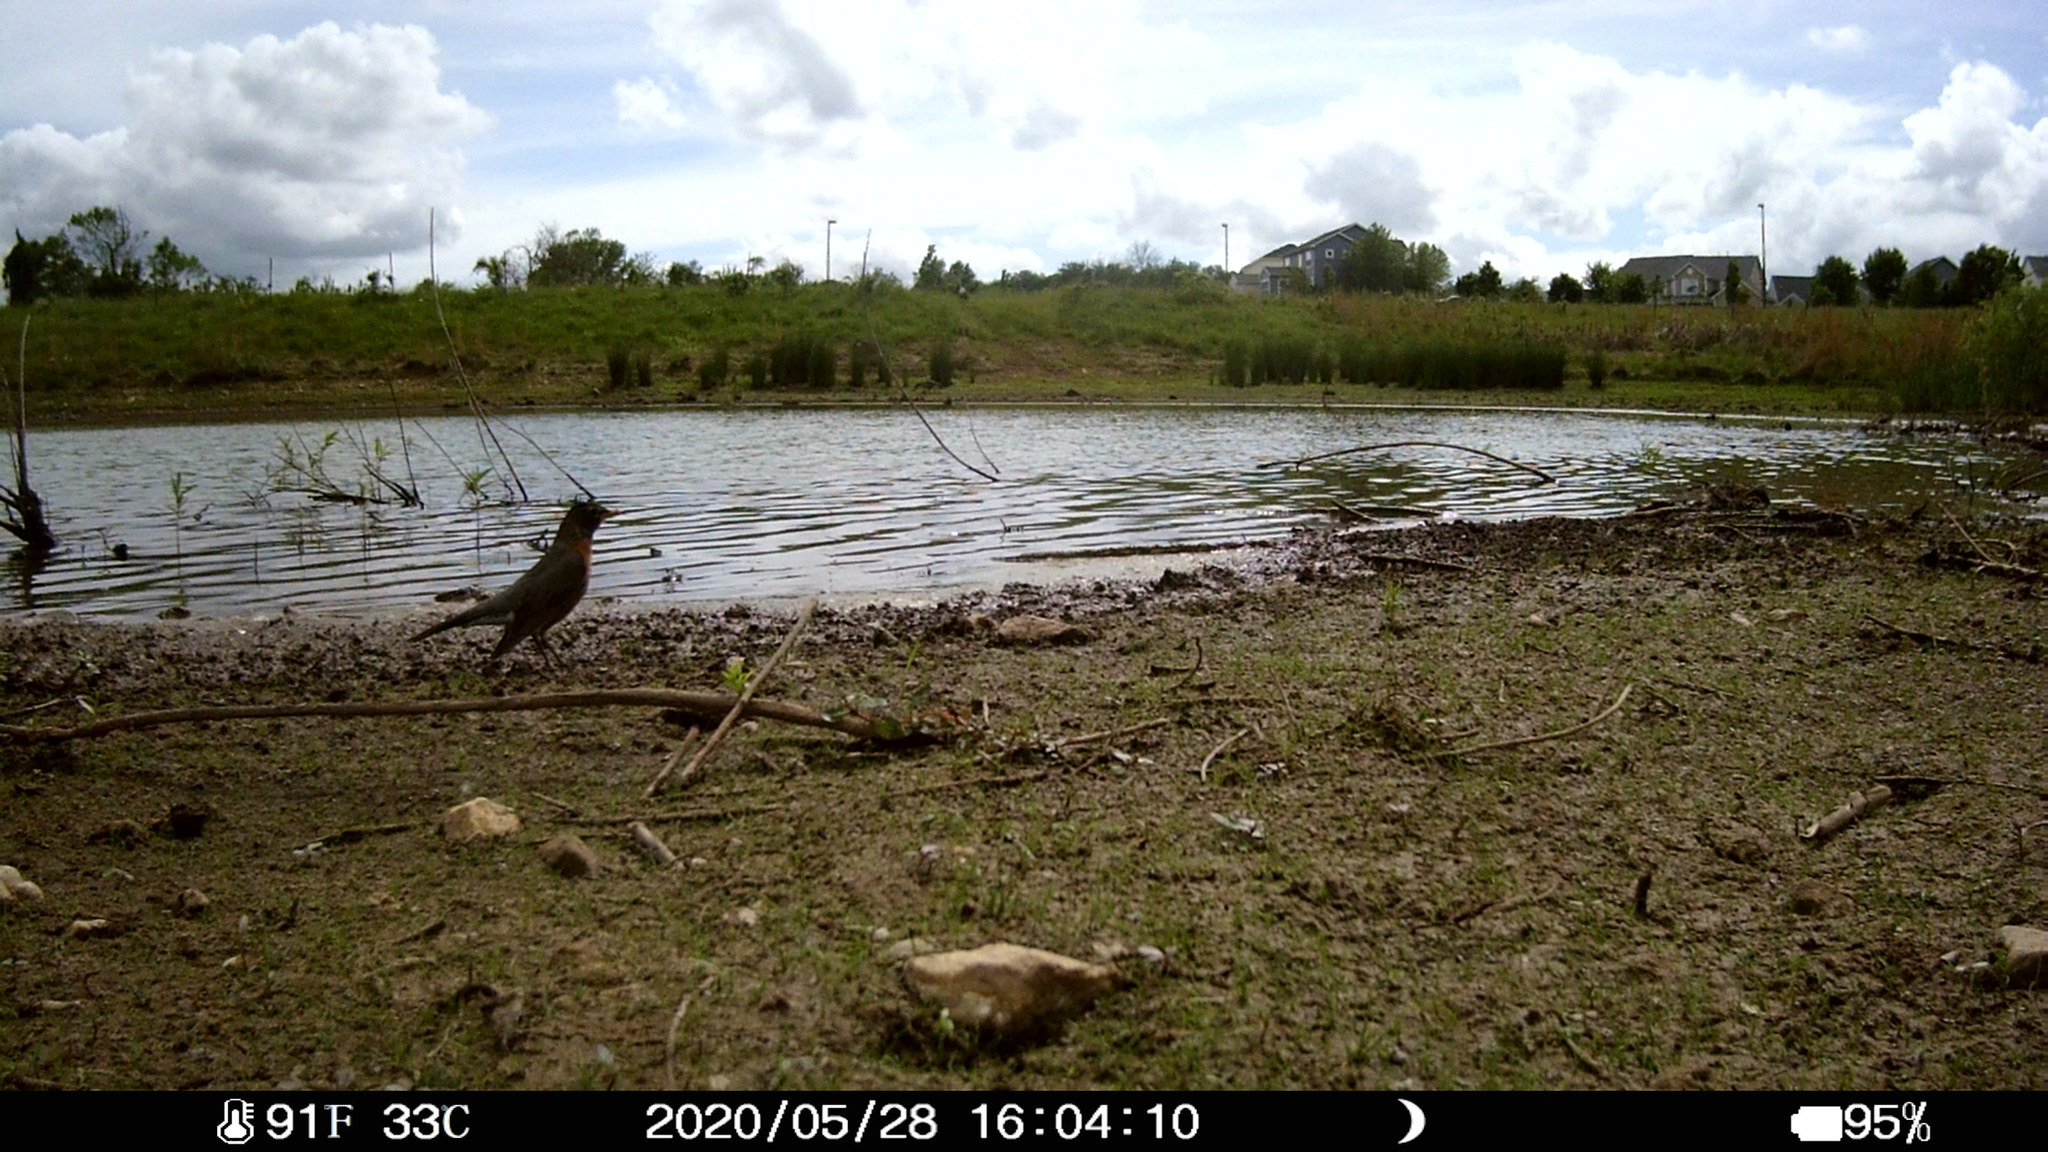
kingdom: Animalia
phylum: Chordata
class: Aves
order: Passeriformes
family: Turdidae
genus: Turdus
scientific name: Turdus migratorius
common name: American robin
